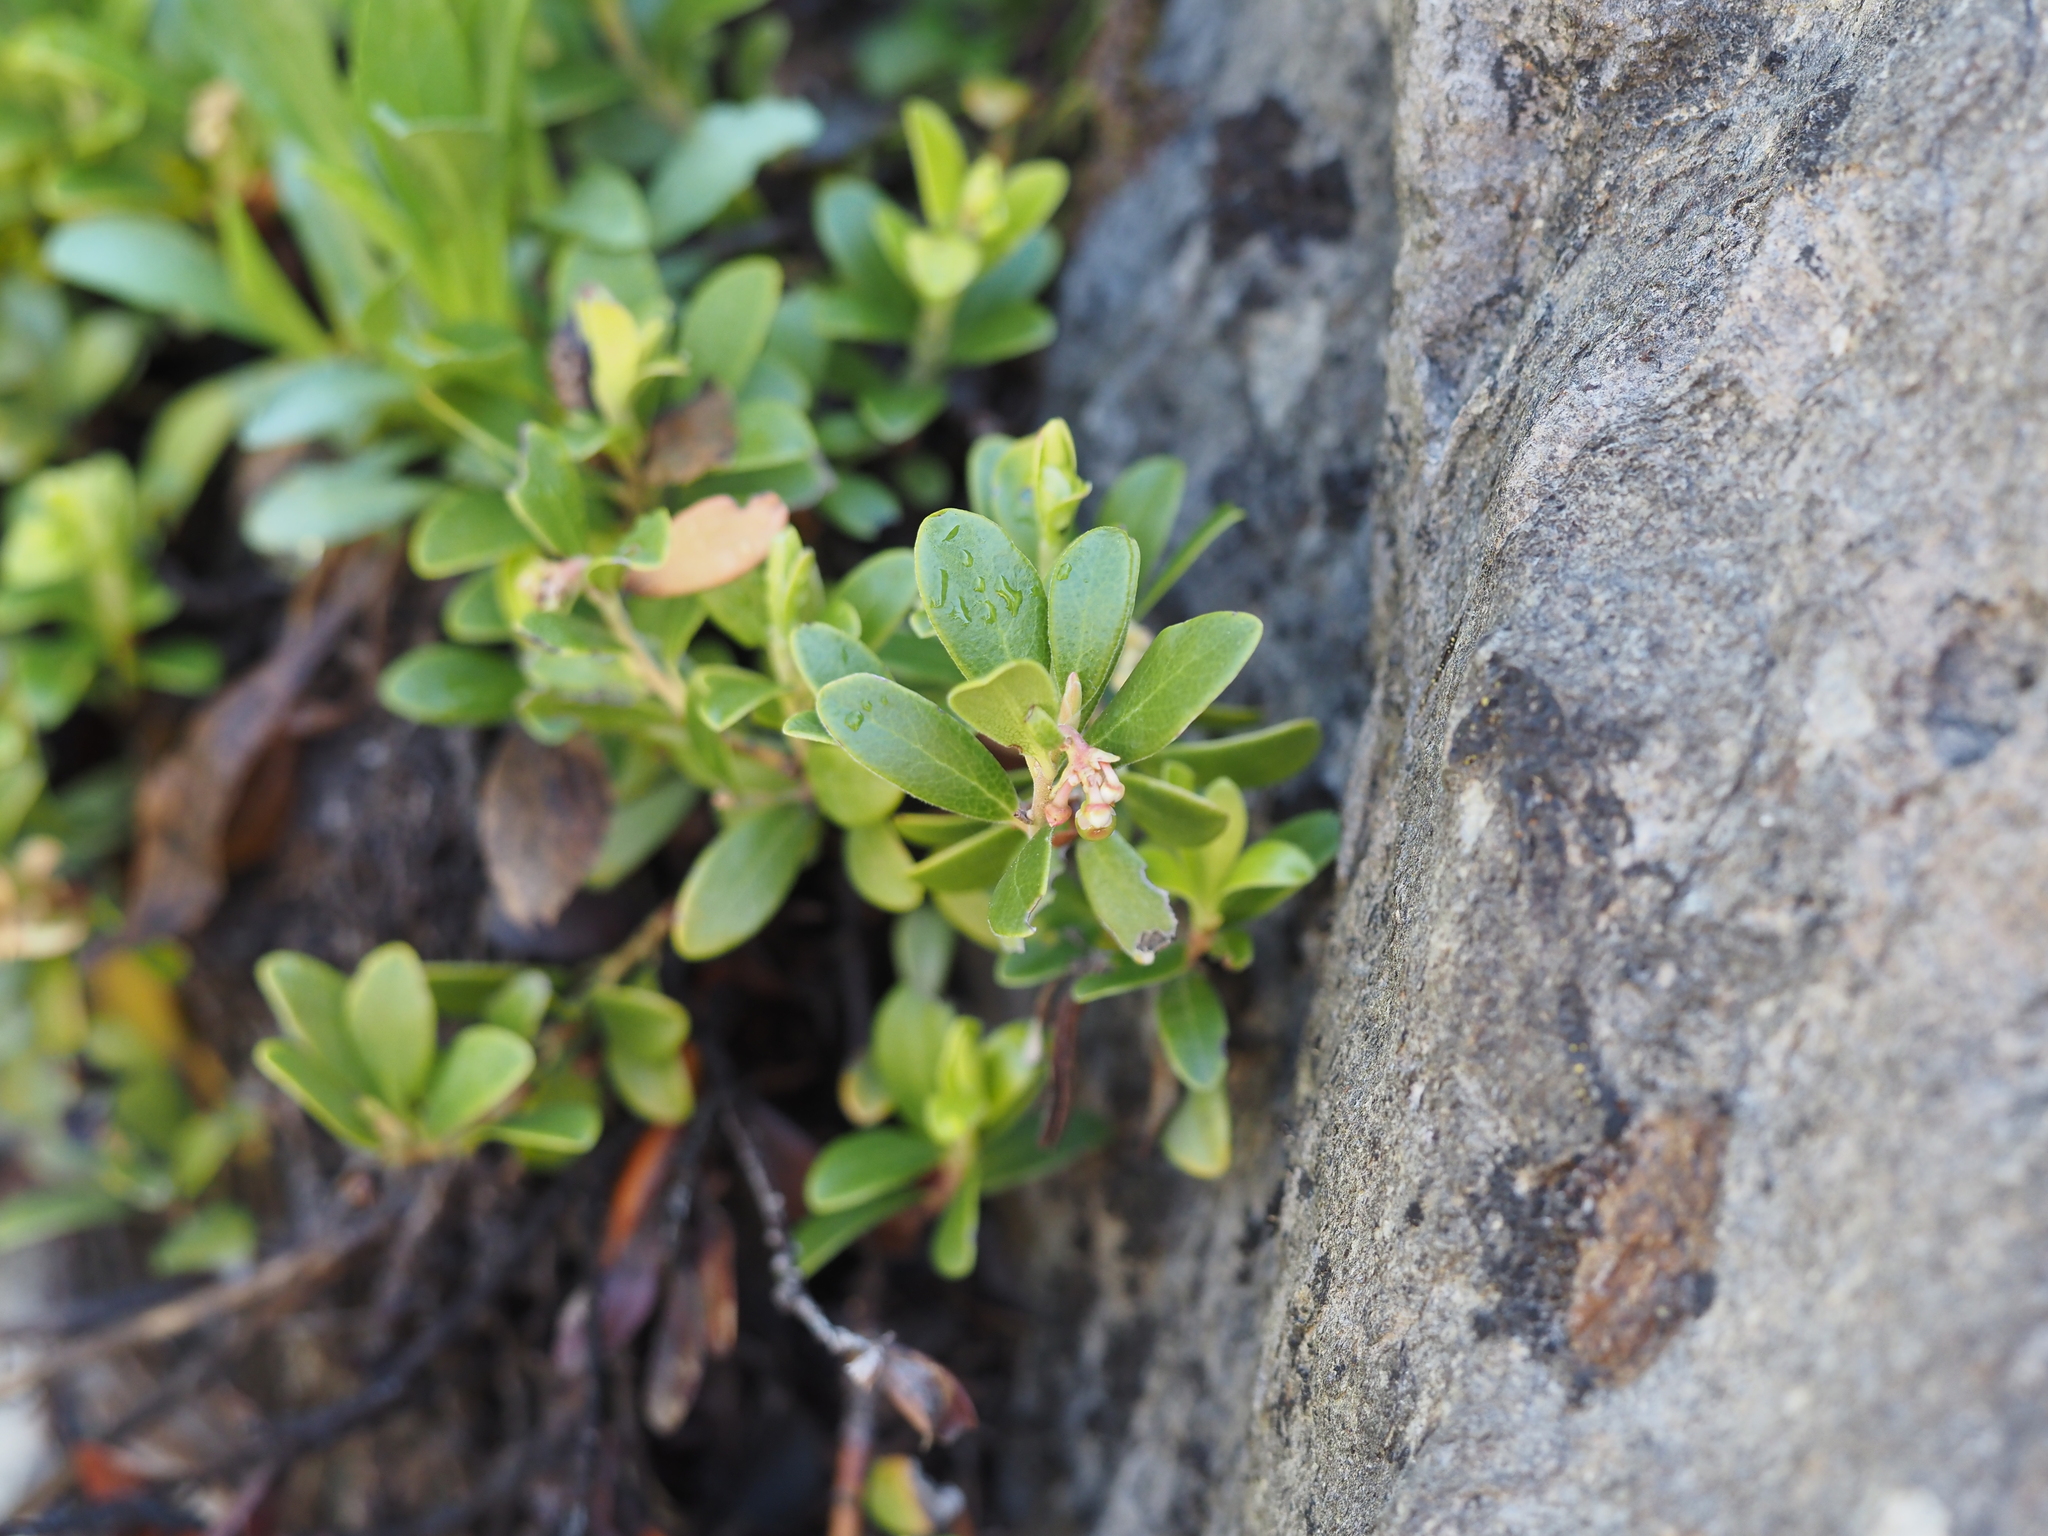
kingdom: Plantae
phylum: Tracheophyta
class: Magnoliopsida
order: Ericales
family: Ericaceae
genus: Arctostaphylos
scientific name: Arctostaphylos uva-ursi
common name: Bearberry
